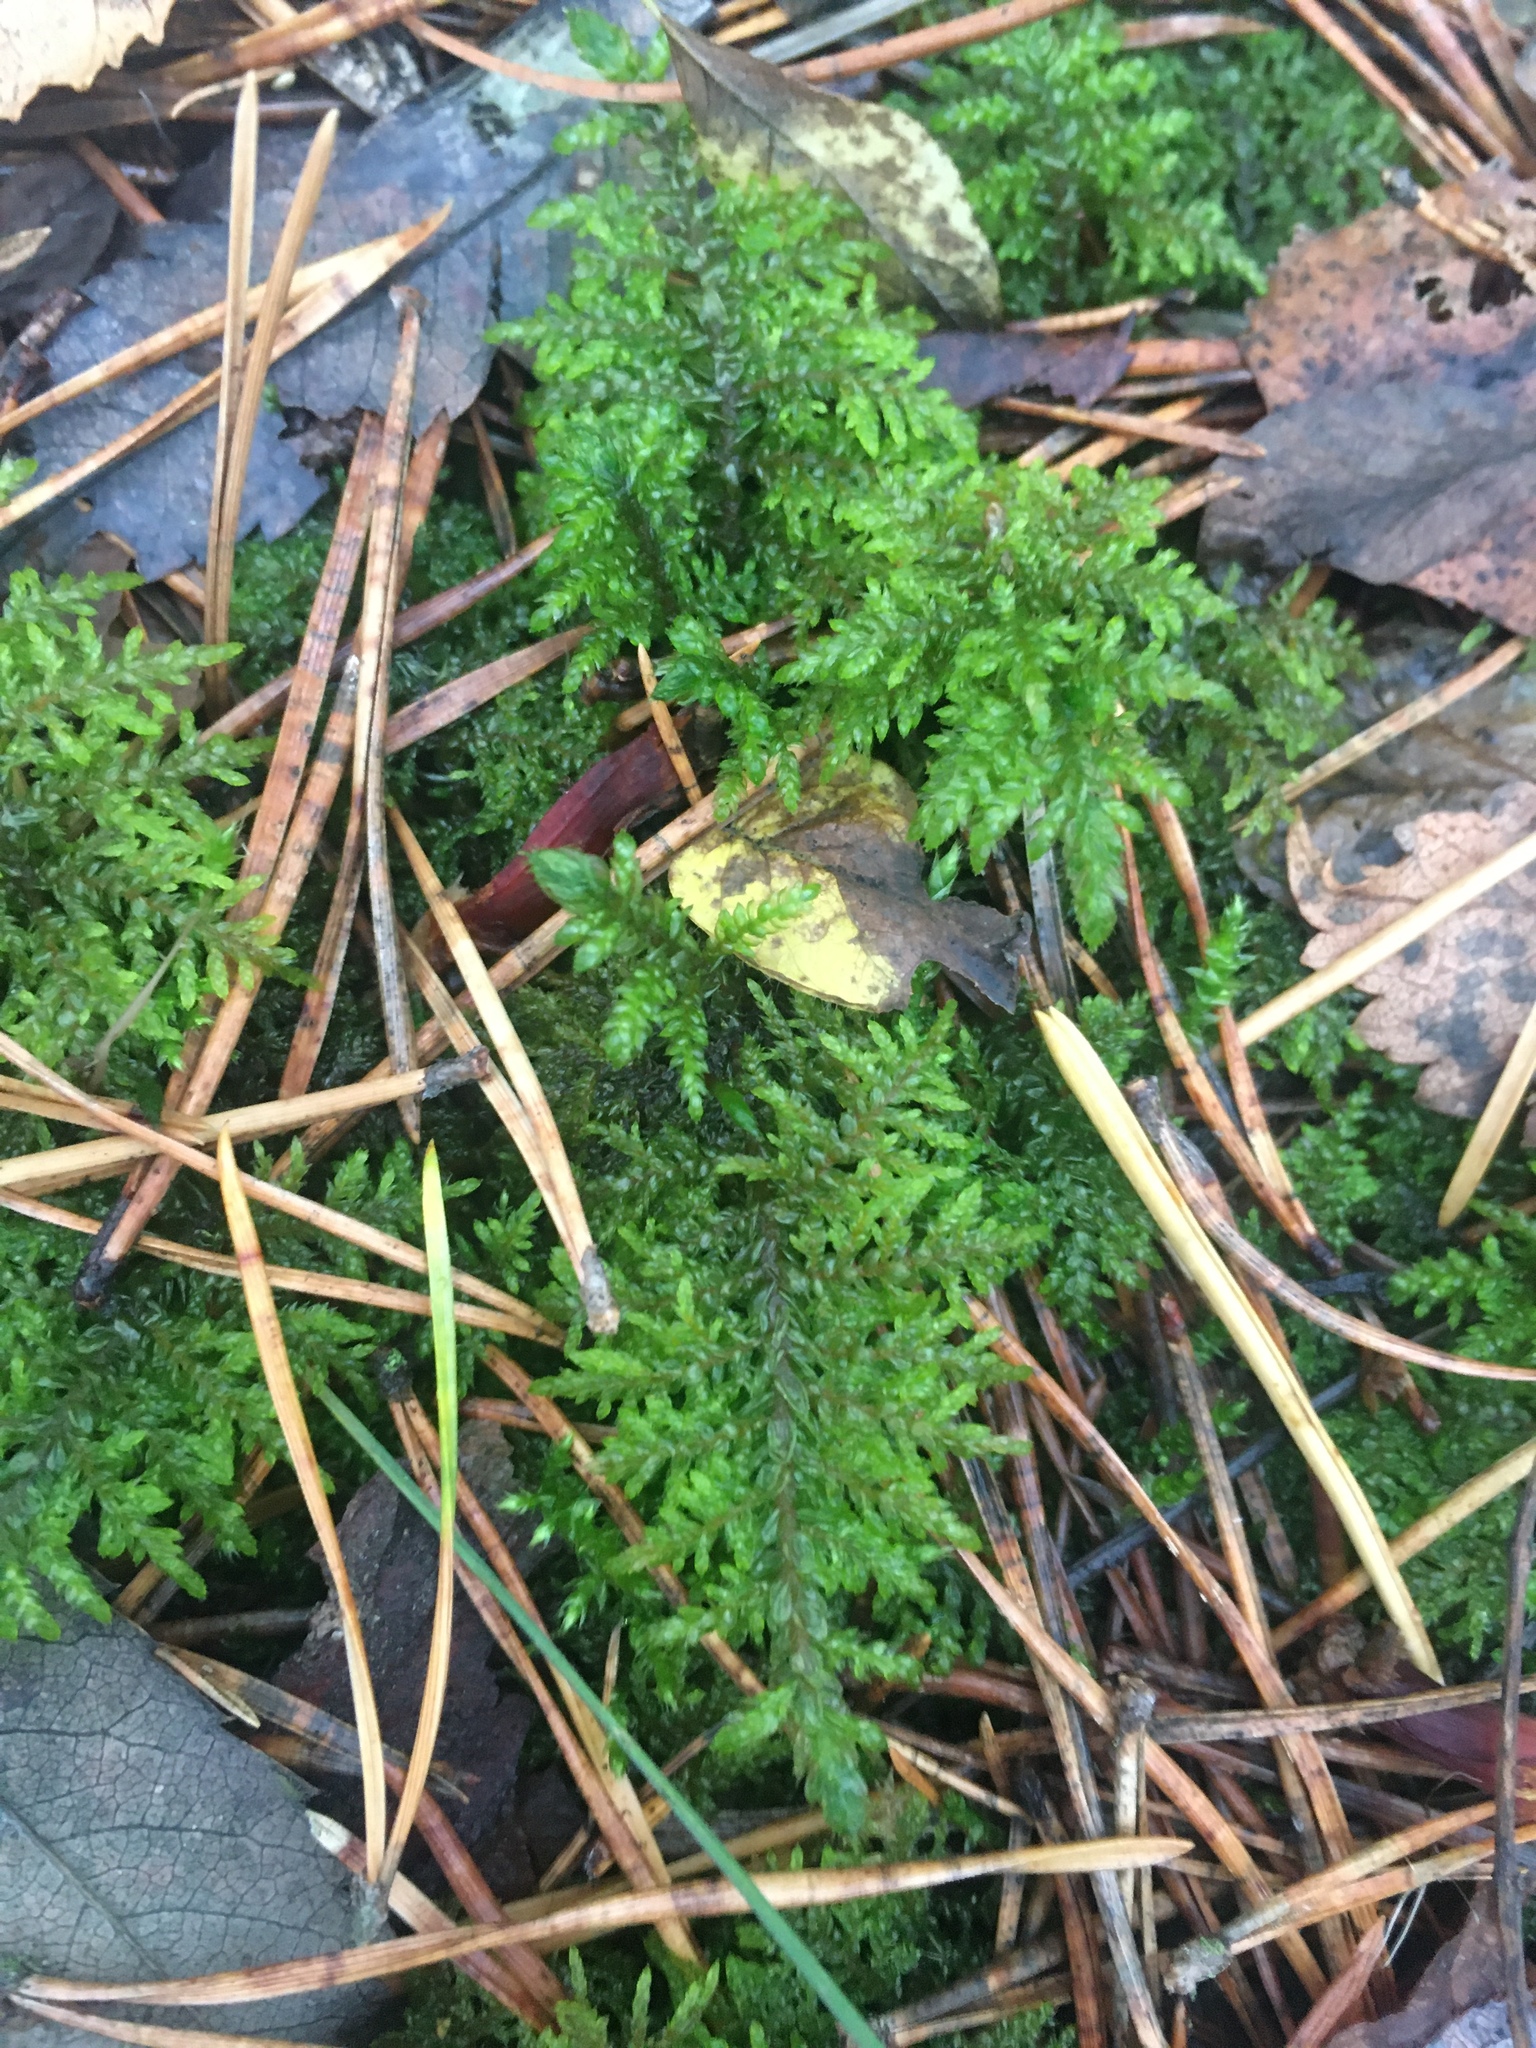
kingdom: Plantae
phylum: Bryophyta
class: Bryopsida
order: Hypnales
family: Hylocomiaceae
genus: Hylocomium
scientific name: Hylocomium splendens
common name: Stairstep moss
